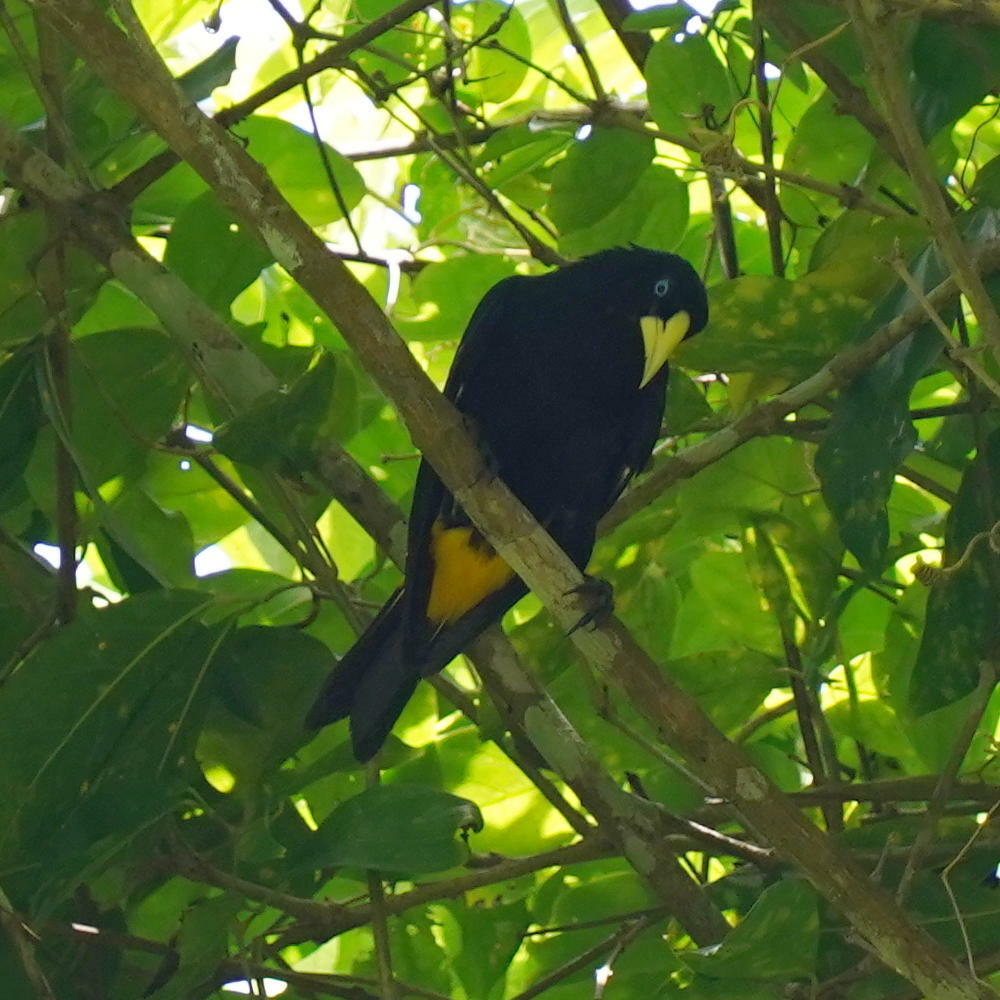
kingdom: Animalia
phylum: Chordata
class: Aves
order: Passeriformes
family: Icteridae
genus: Cacicus
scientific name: Cacicus cela
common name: Yellow-rumped cacique
